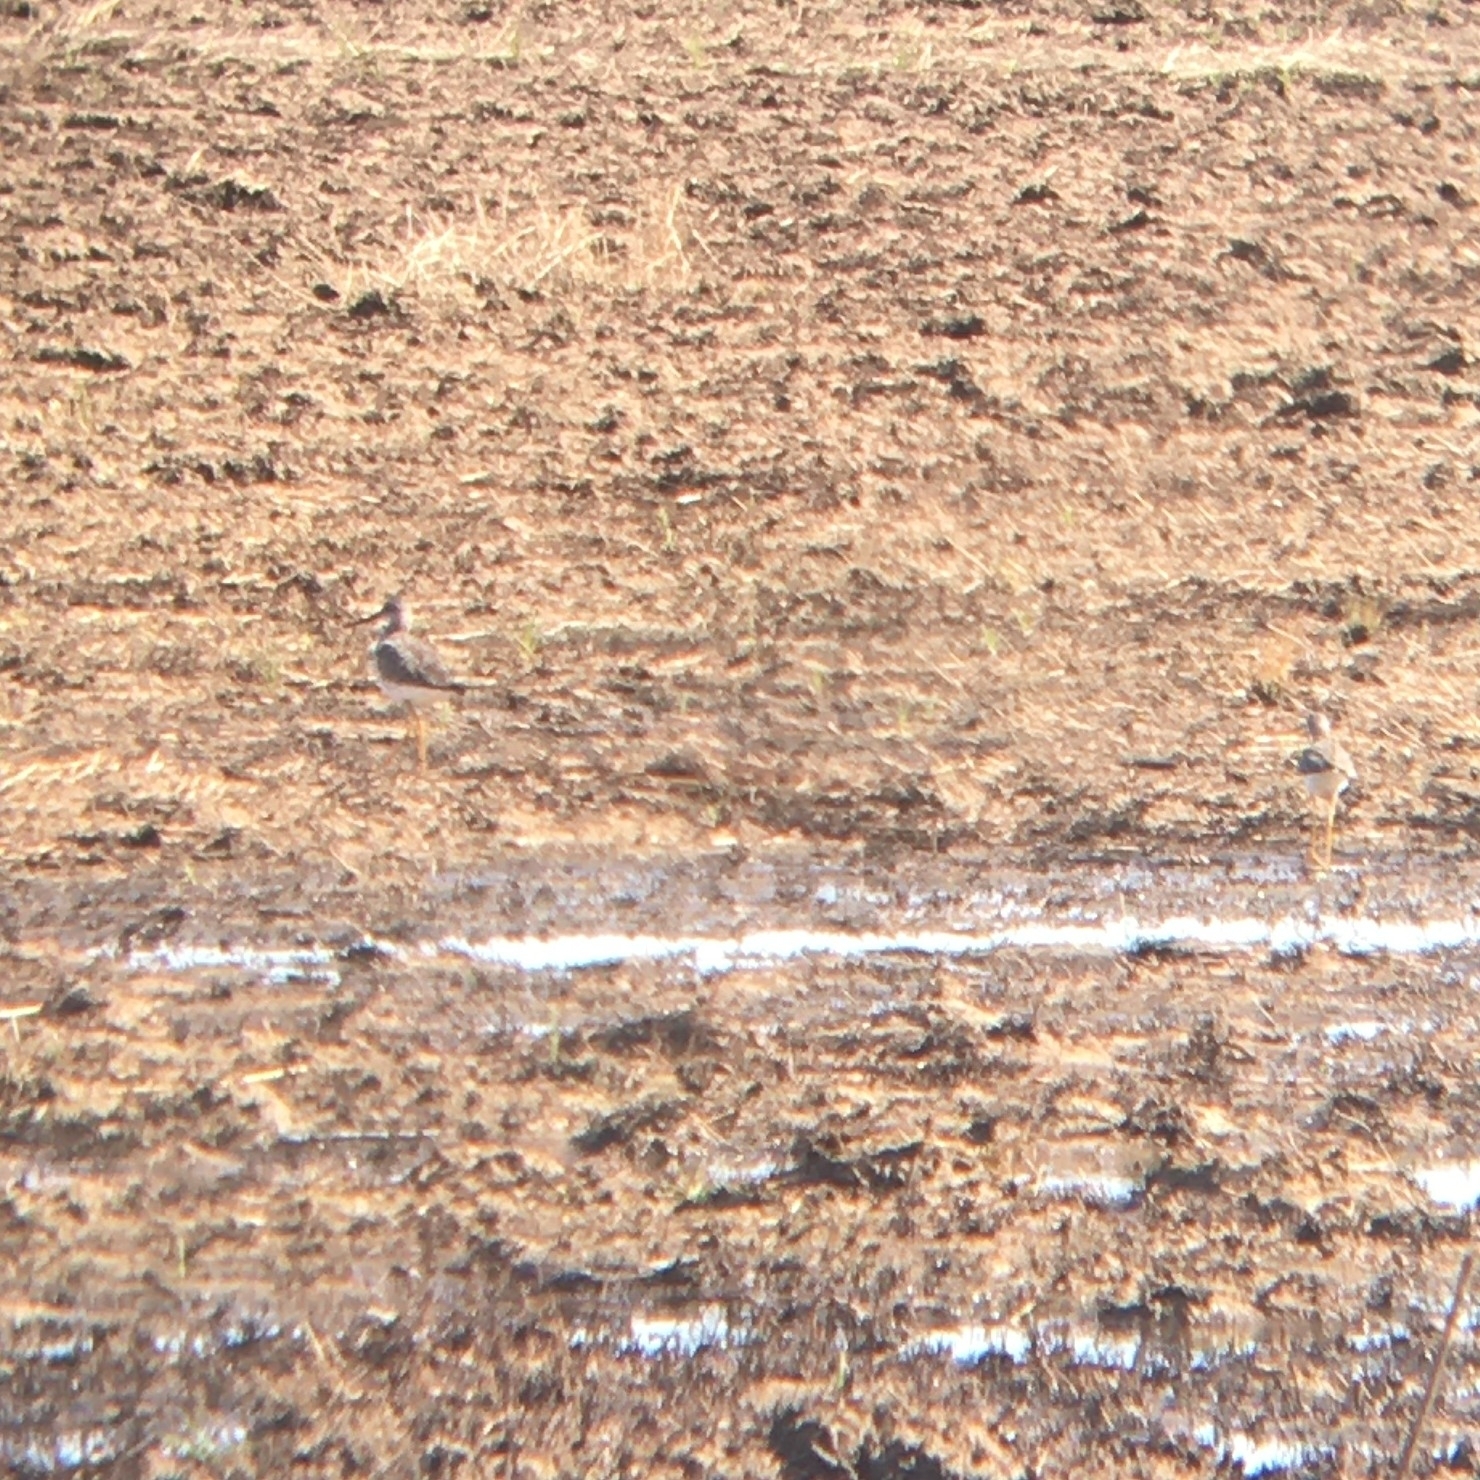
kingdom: Animalia
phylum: Chordata
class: Aves
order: Charadriiformes
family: Scolopacidae
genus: Tringa
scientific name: Tringa melanoleuca
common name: Greater yellowlegs
